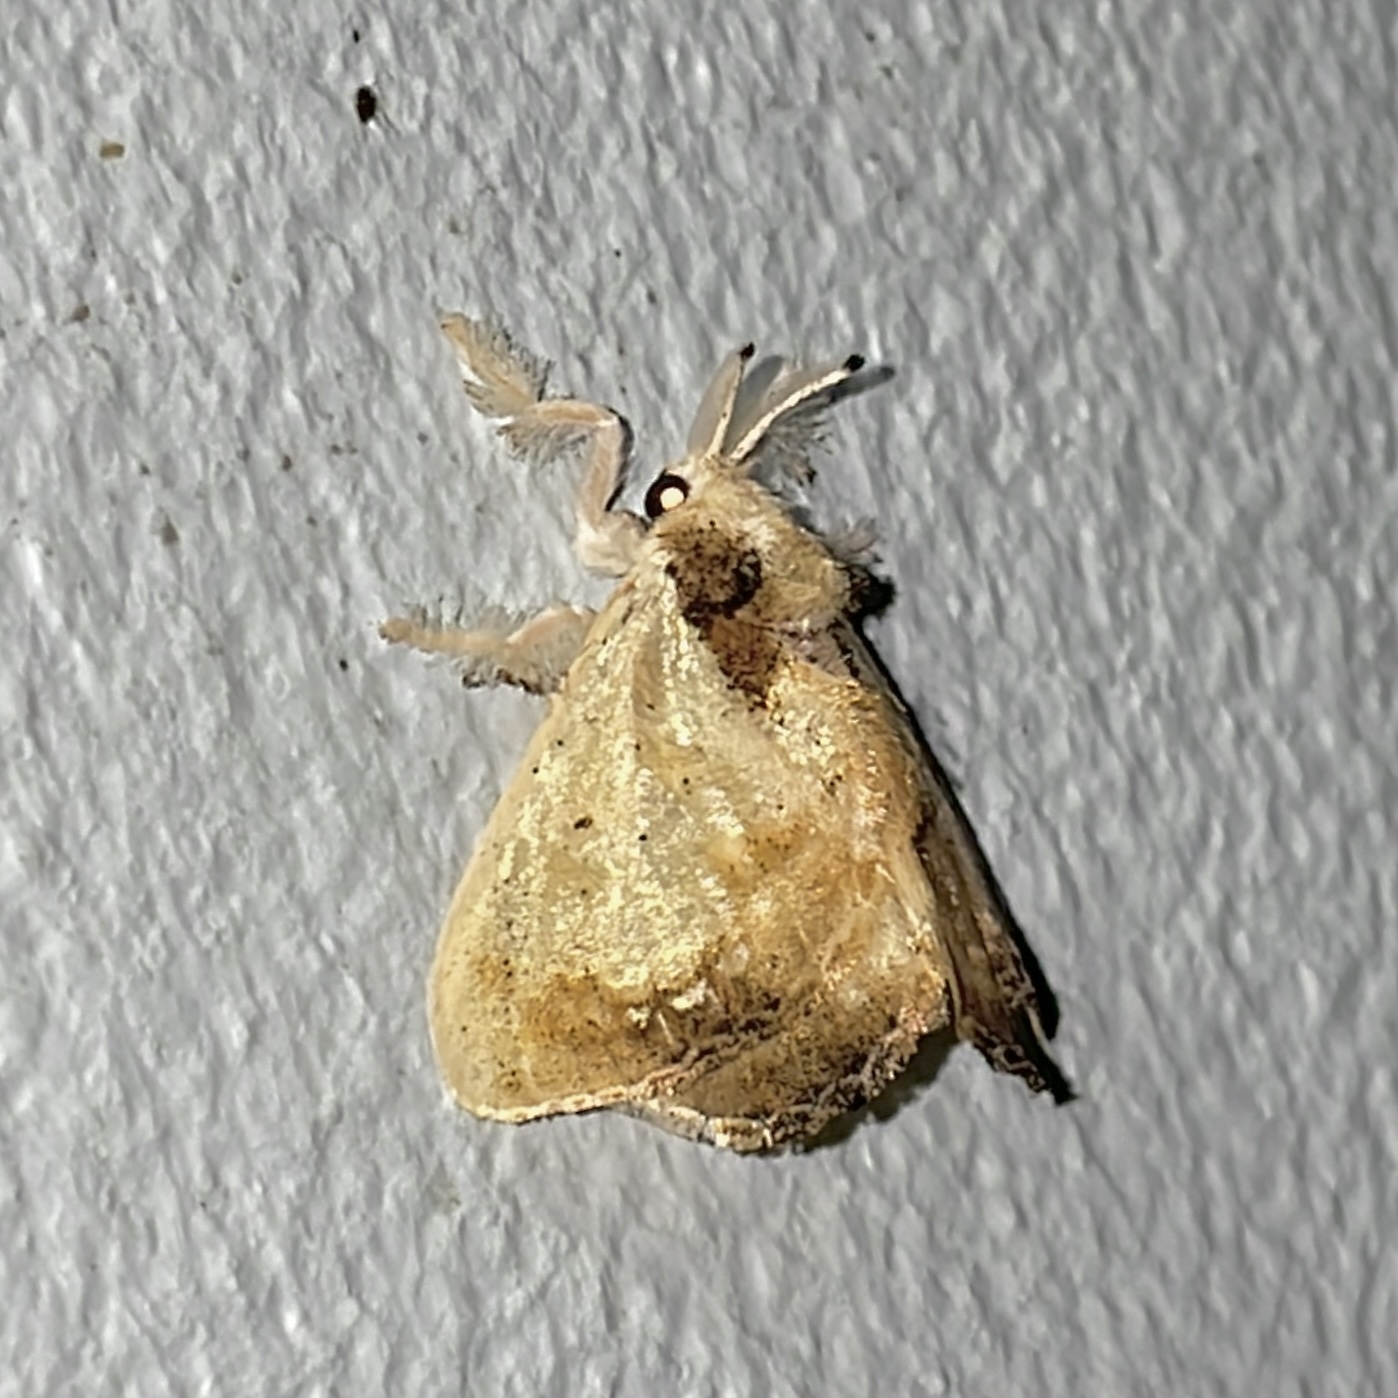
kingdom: Animalia
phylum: Arthropoda
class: Insecta
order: Lepidoptera
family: Dalceridae
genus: Minacraga
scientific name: Minacraga disconitens
